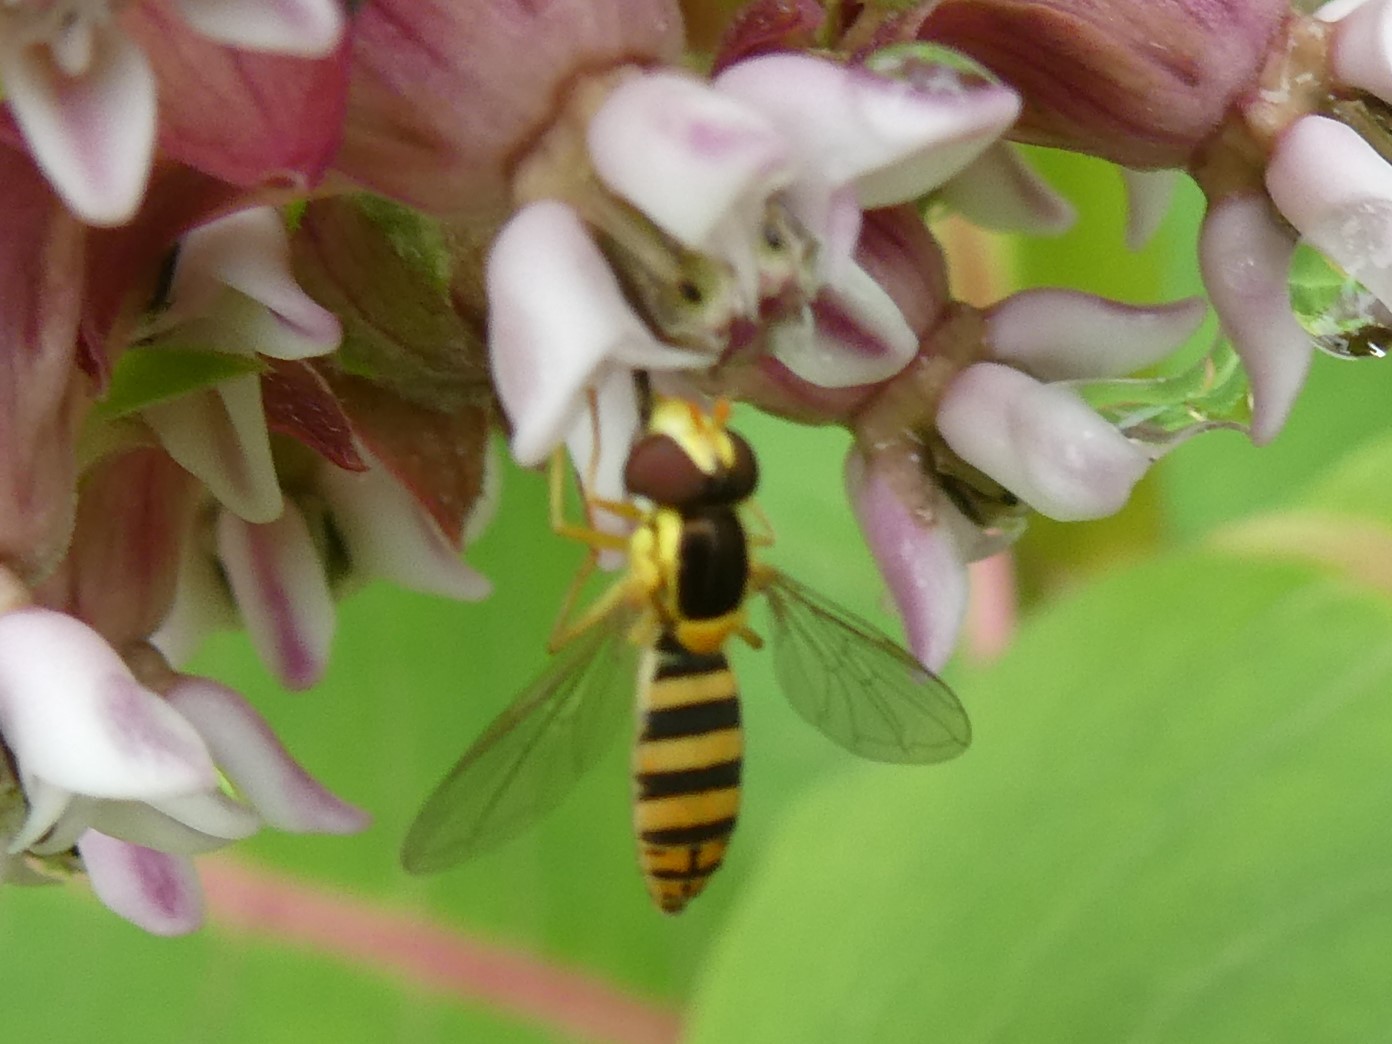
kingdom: Animalia
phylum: Arthropoda
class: Insecta
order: Diptera
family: Syrphidae
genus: Sphaerophoria
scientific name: Sphaerophoria
